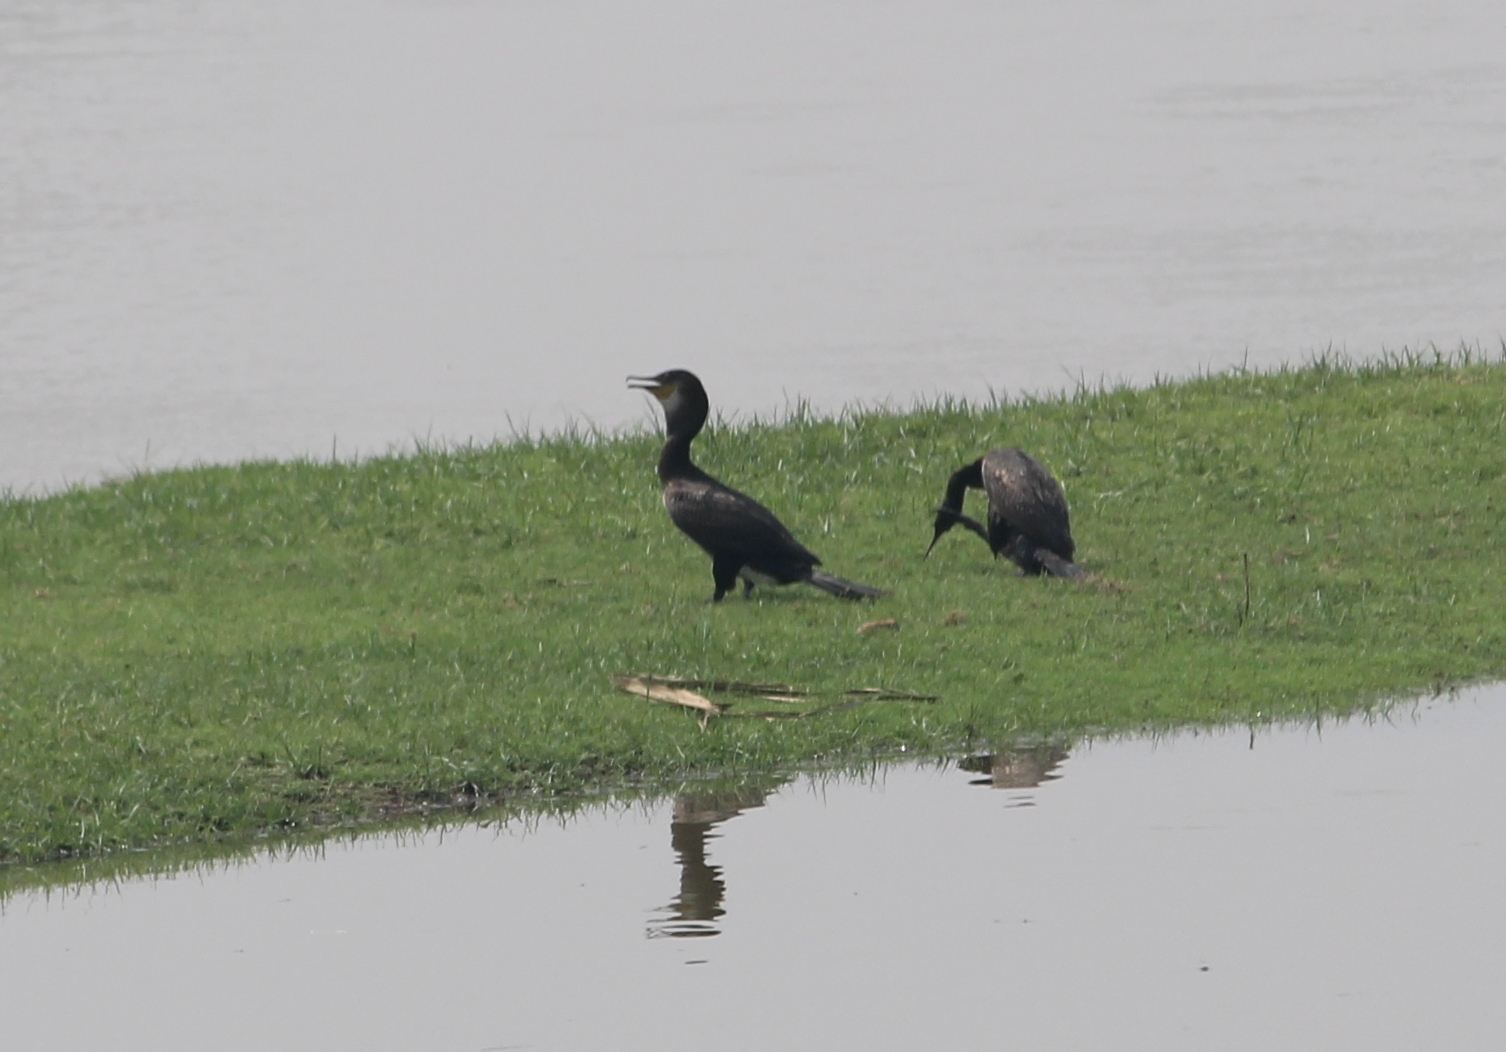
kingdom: Animalia
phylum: Chordata
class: Aves
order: Suliformes
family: Phalacrocoracidae
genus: Phalacrocorax
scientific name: Phalacrocorax fuscicollis
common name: Indian cormorant
